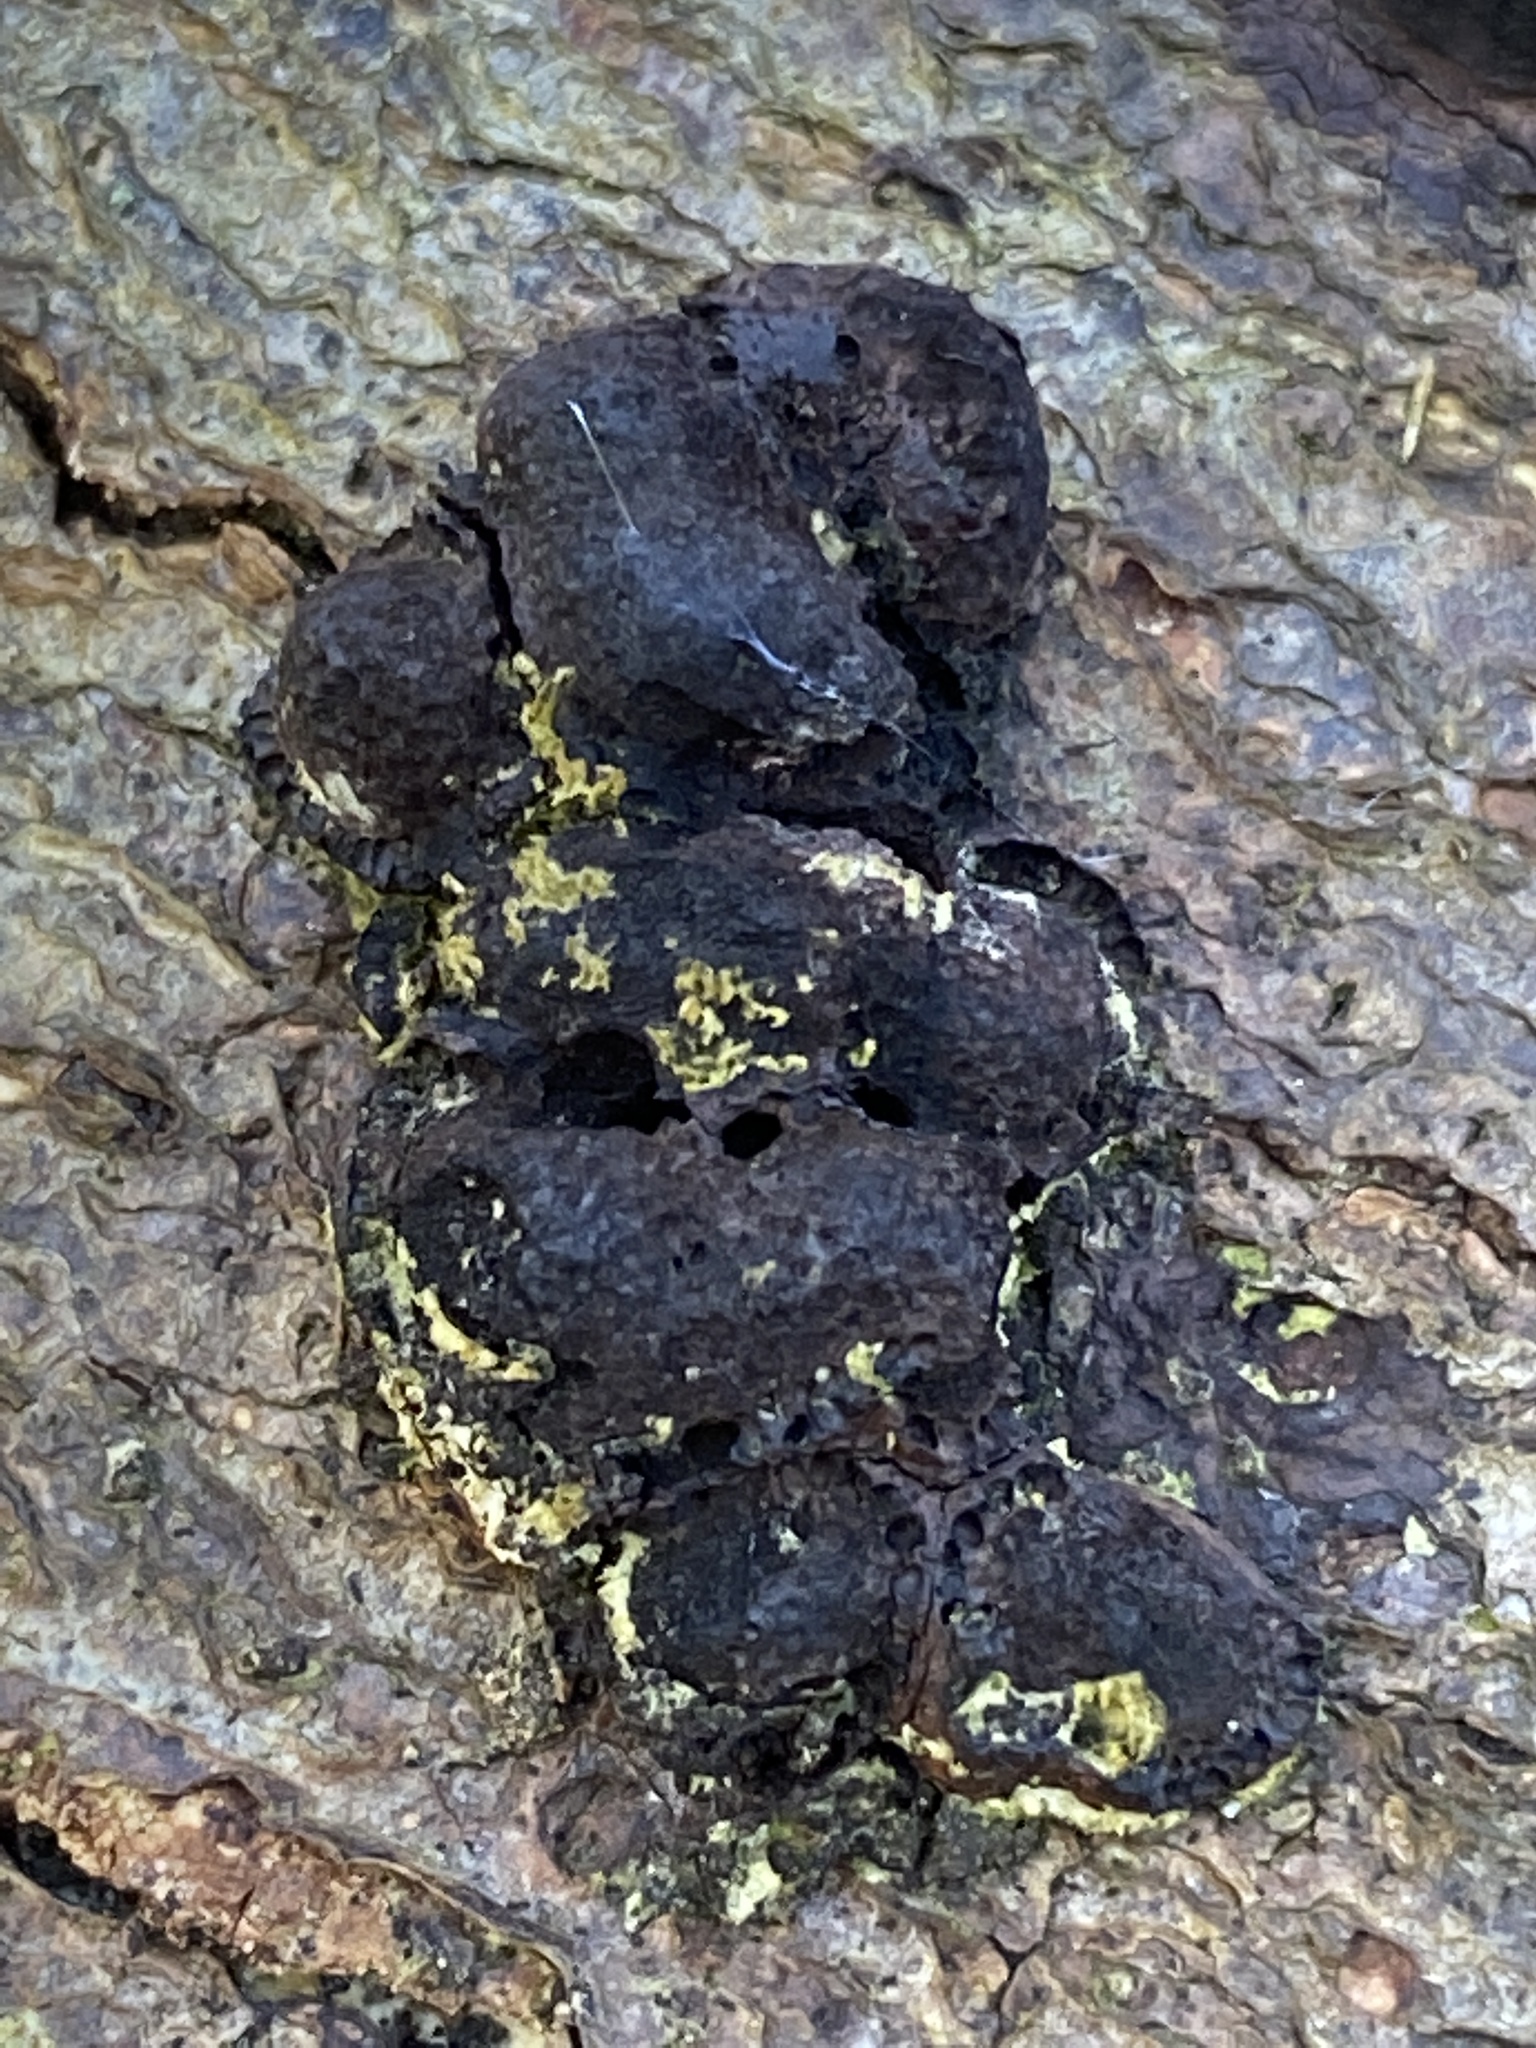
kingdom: Fungi
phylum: Ascomycota
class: Sordariomycetes
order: Xylariales
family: Hypoxylaceae
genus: Hypoxylon
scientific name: Hypoxylon fragiforme
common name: Beech woodwart
